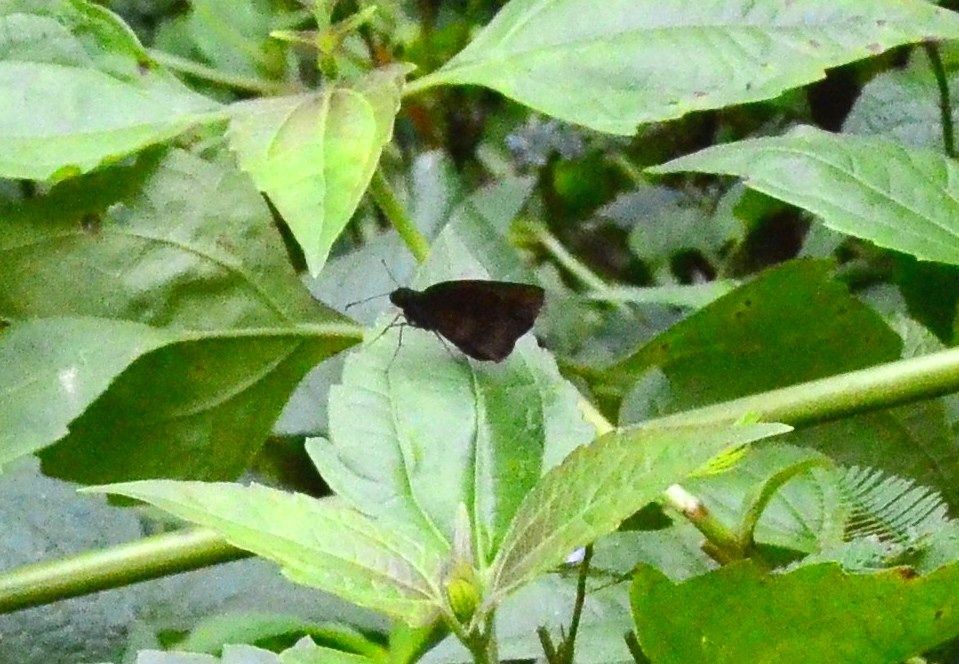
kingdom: Animalia
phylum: Arthropoda
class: Insecta
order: Lepidoptera
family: Hesperiidae
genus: Psolos
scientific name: Psolos fuligo
